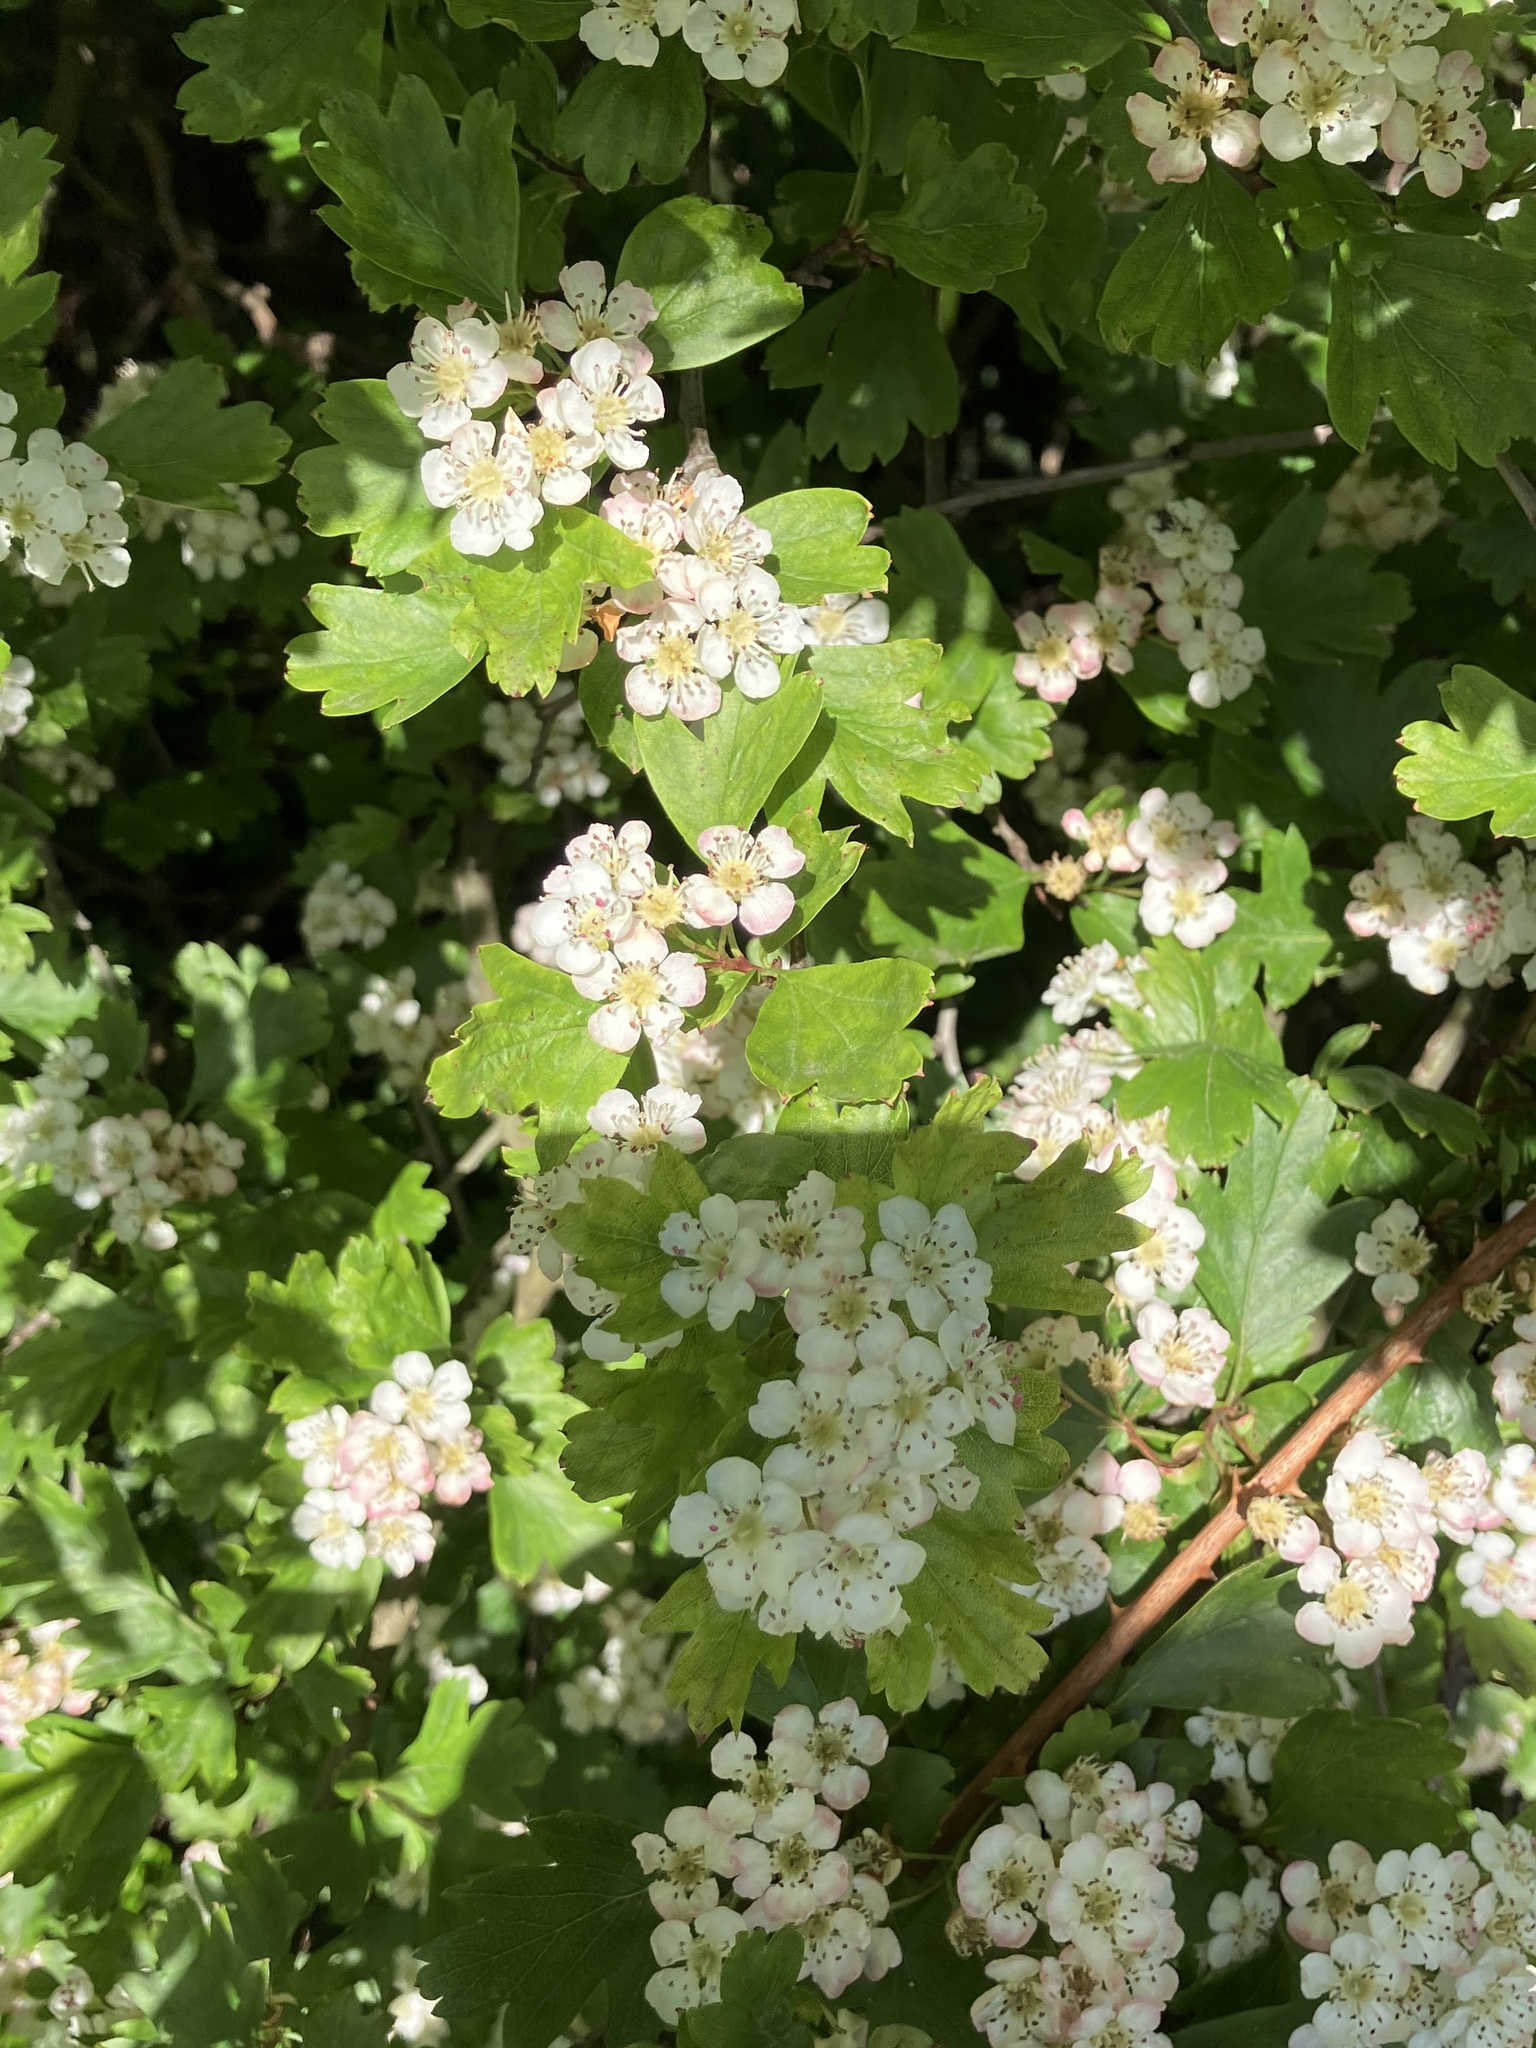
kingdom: Plantae
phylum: Tracheophyta
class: Magnoliopsida
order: Rosales
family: Rosaceae
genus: Crataegus
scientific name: Crataegus monogyna
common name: Hawthorn
